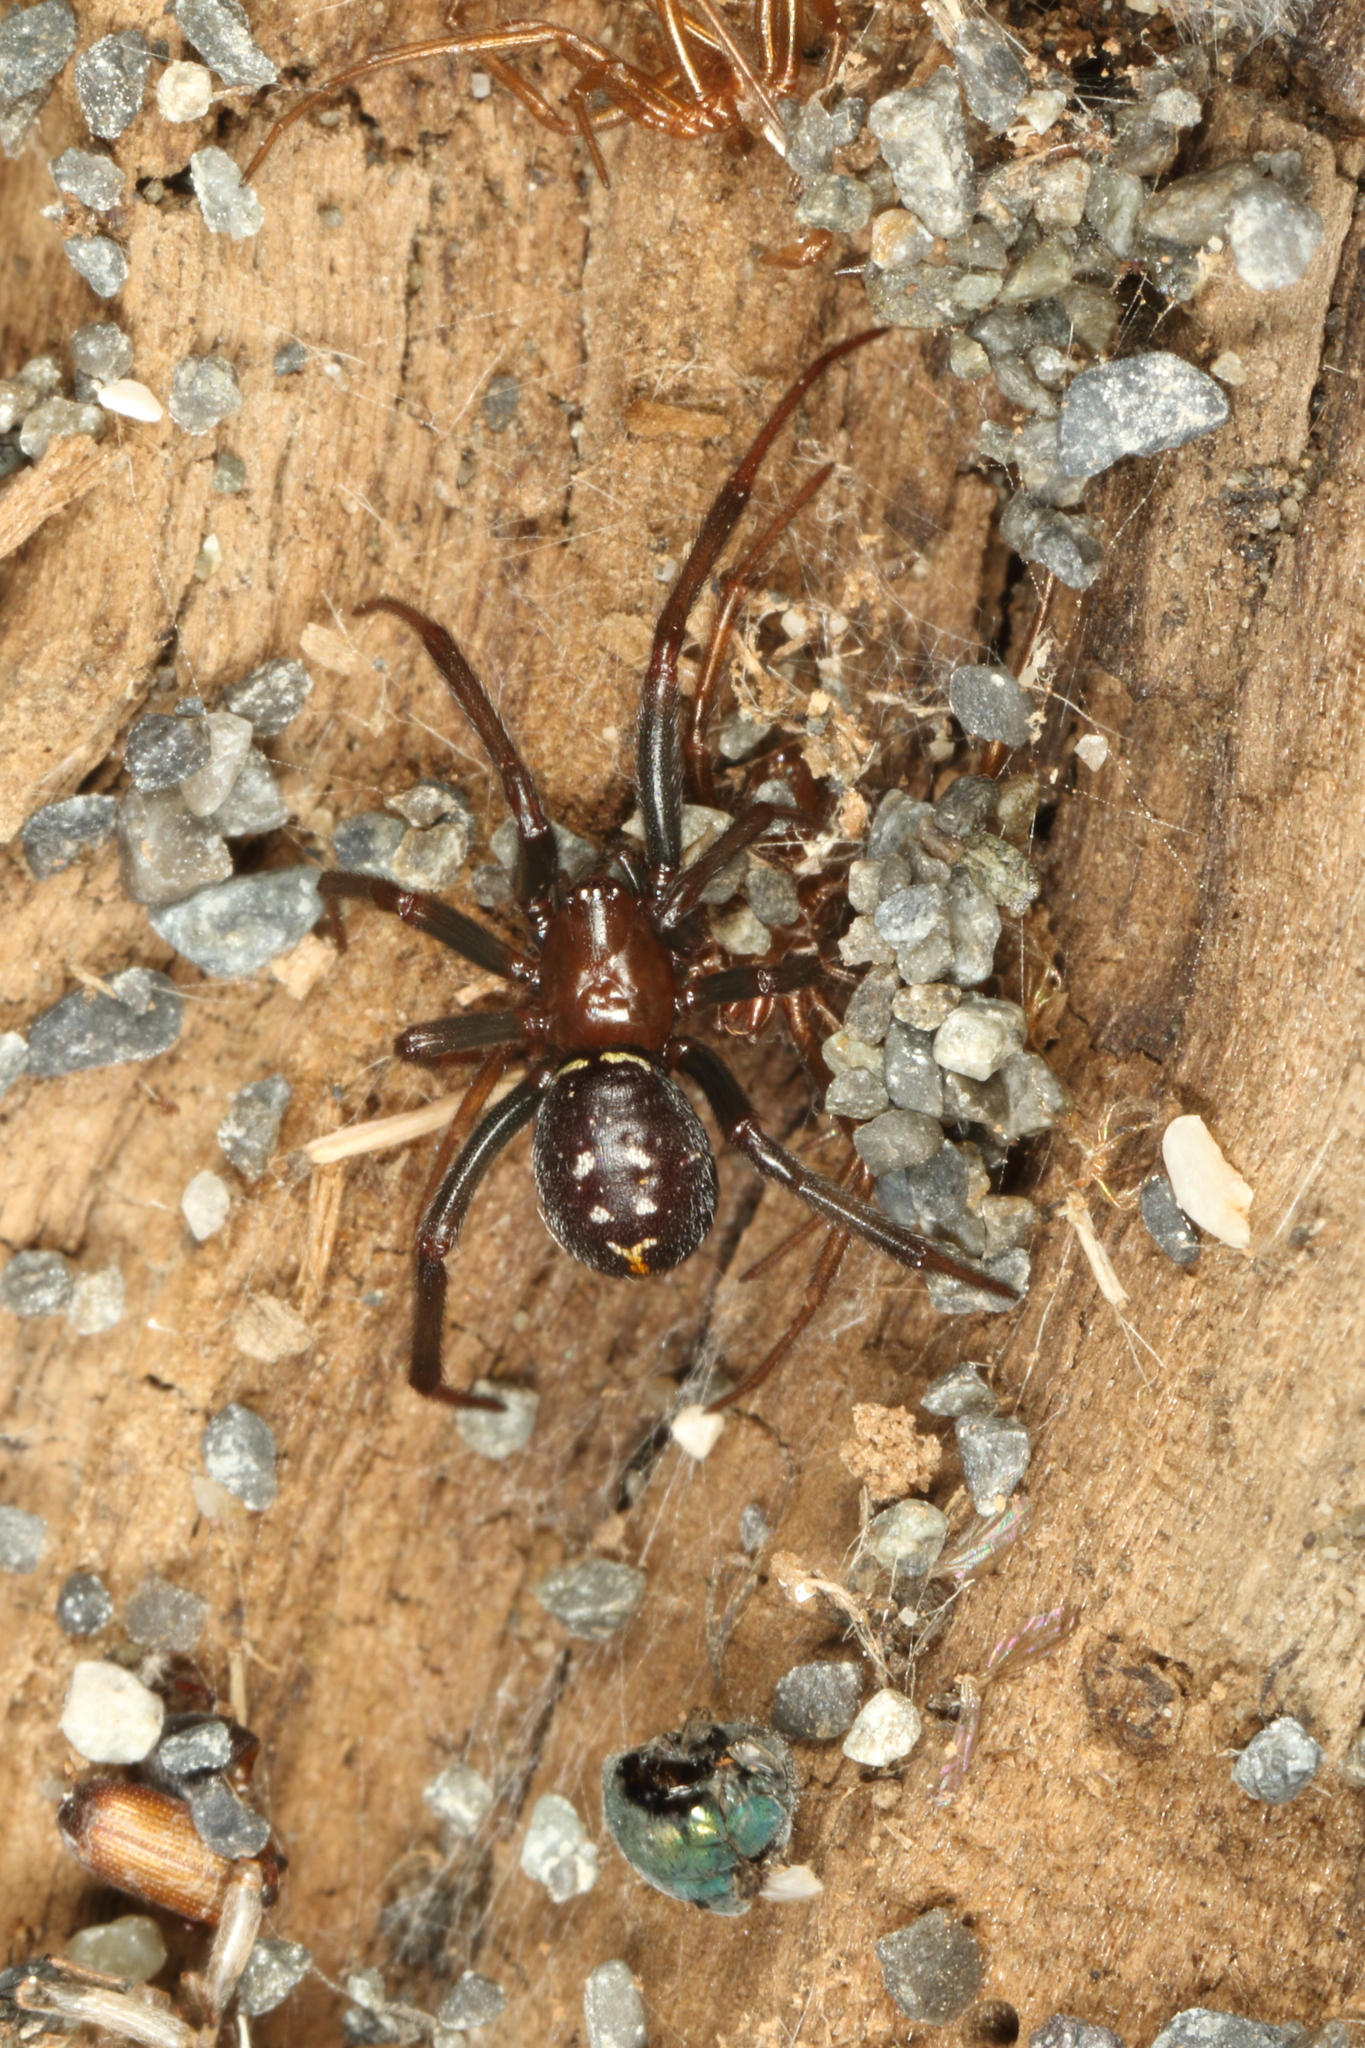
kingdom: Animalia
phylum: Arthropoda
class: Arachnida
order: Araneae
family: Theridiidae
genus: Steatoda
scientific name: Steatoda capensis
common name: Cobweb weaver
